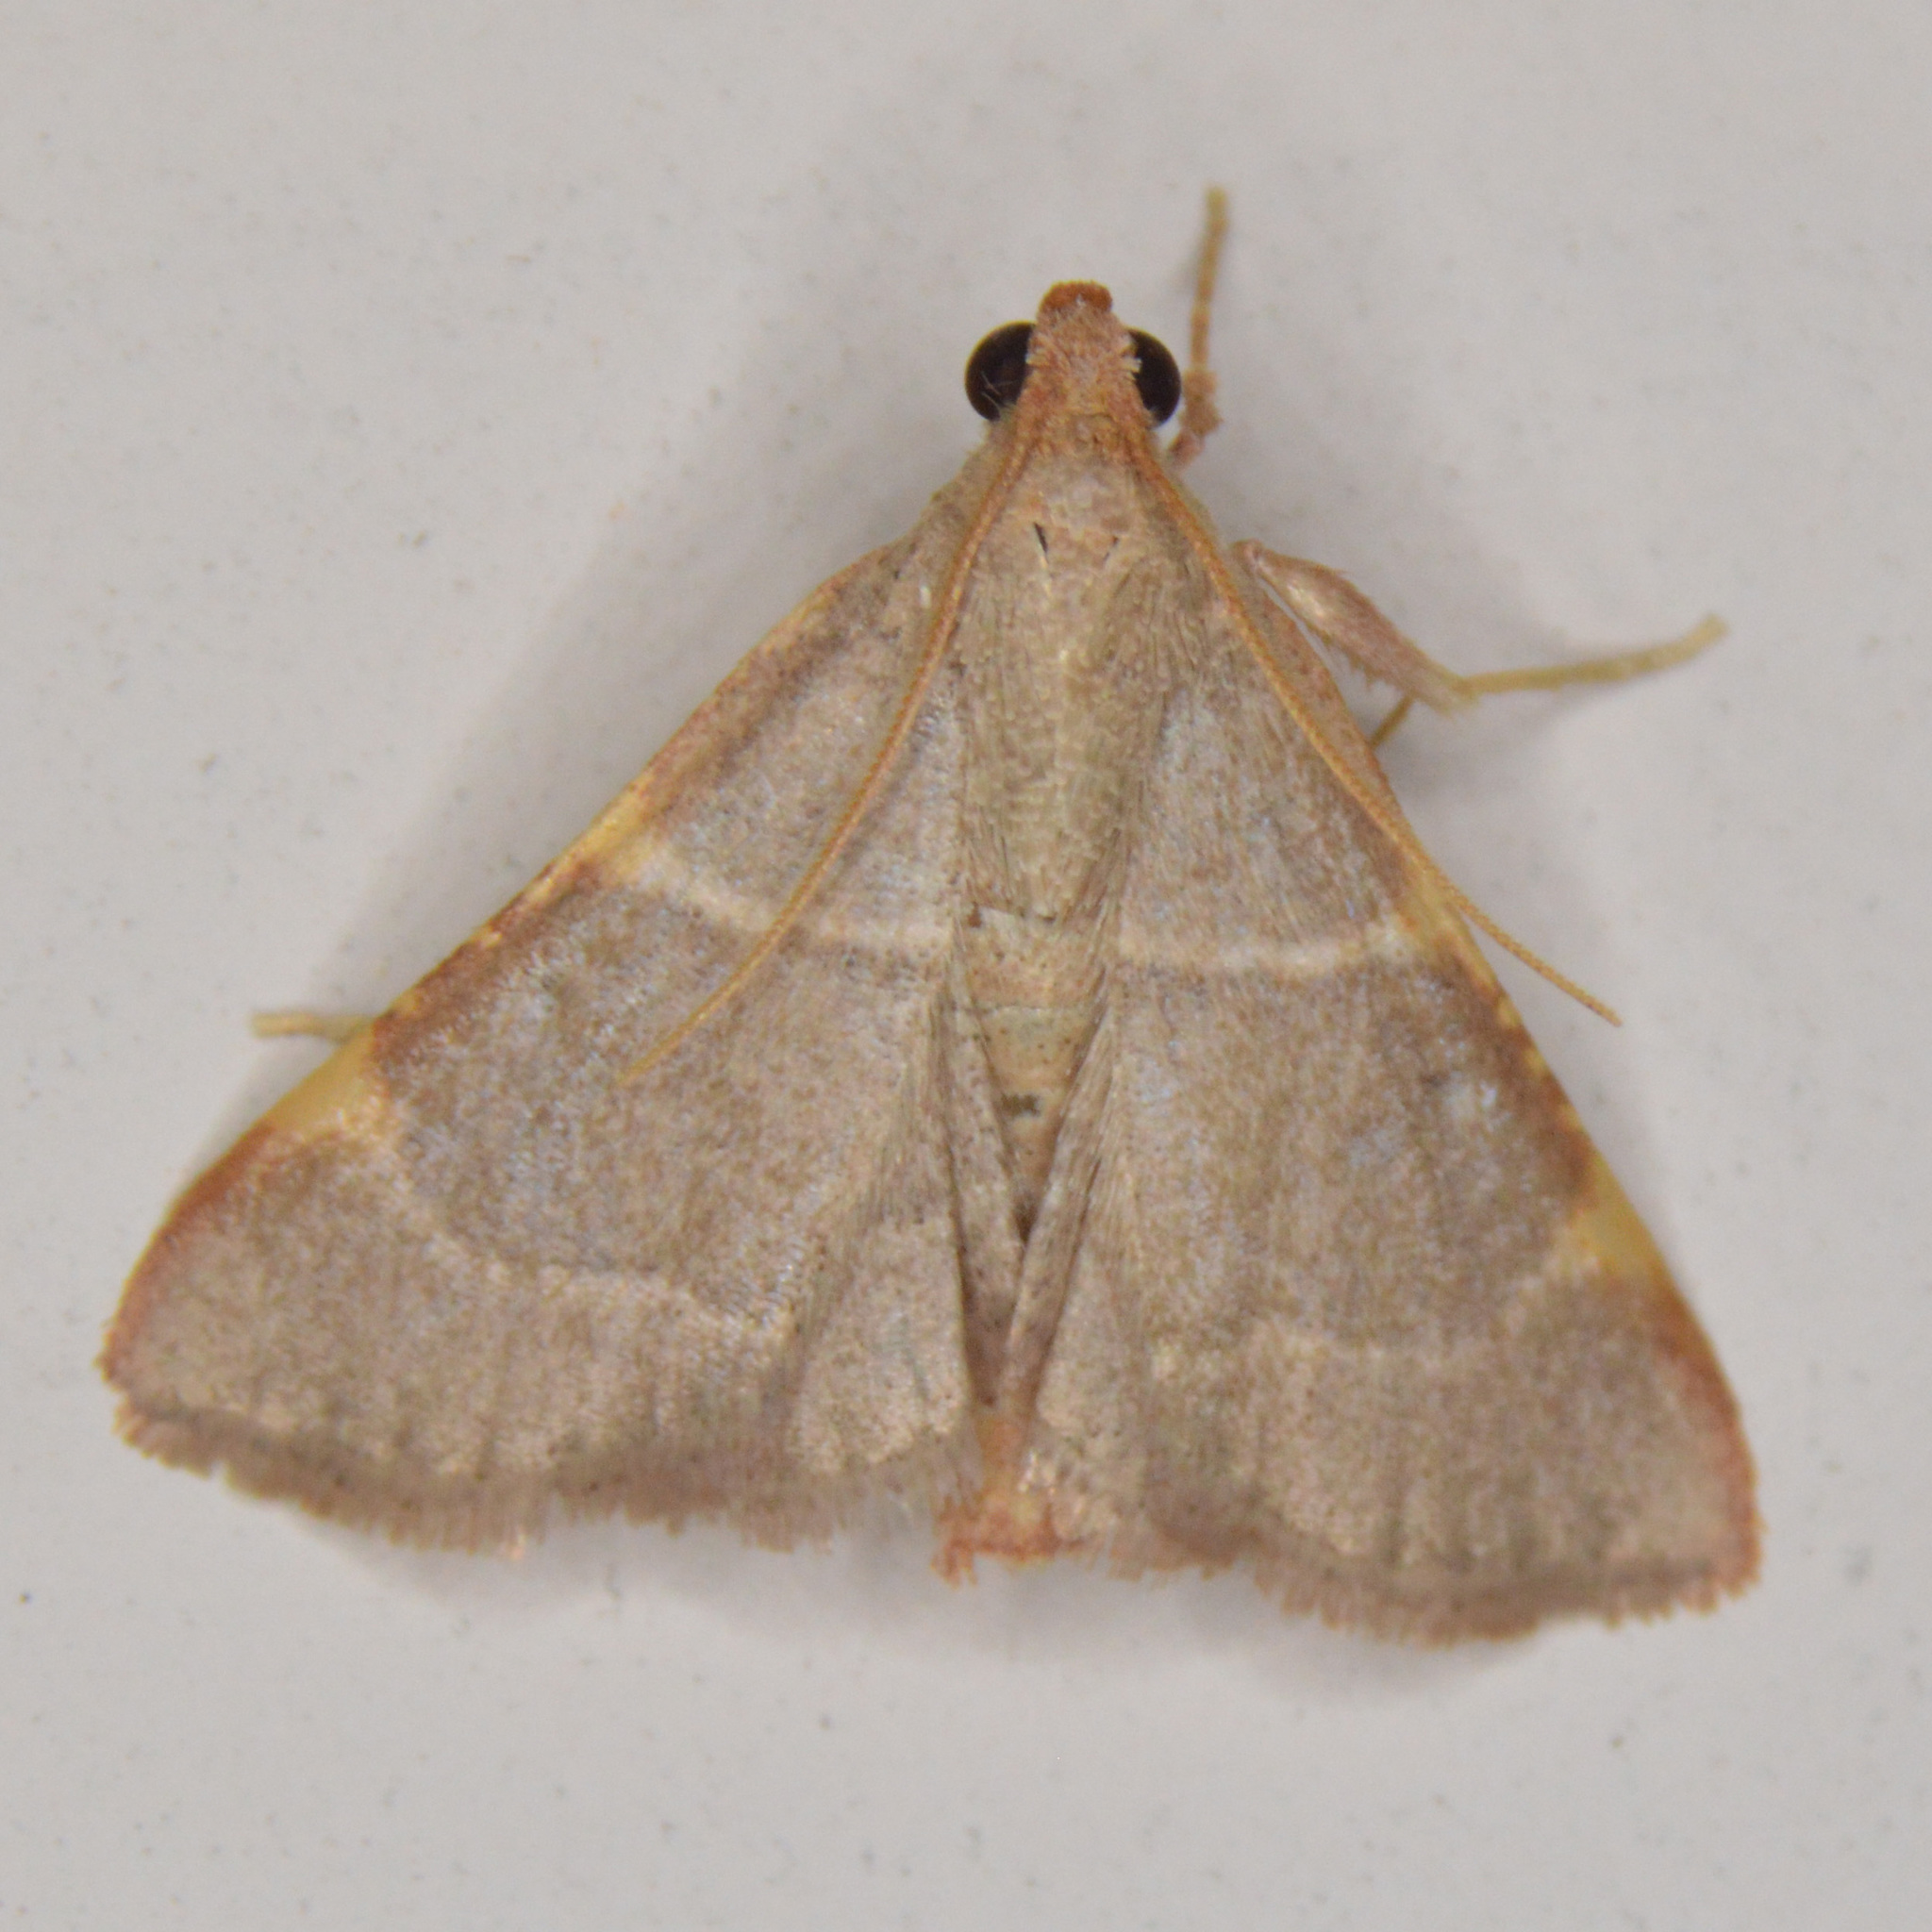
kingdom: Animalia
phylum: Arthropoda
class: Insecta
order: Lepidoptera
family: Pyralidae
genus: Hypsopygia
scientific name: Hypsopygia binodulalis
